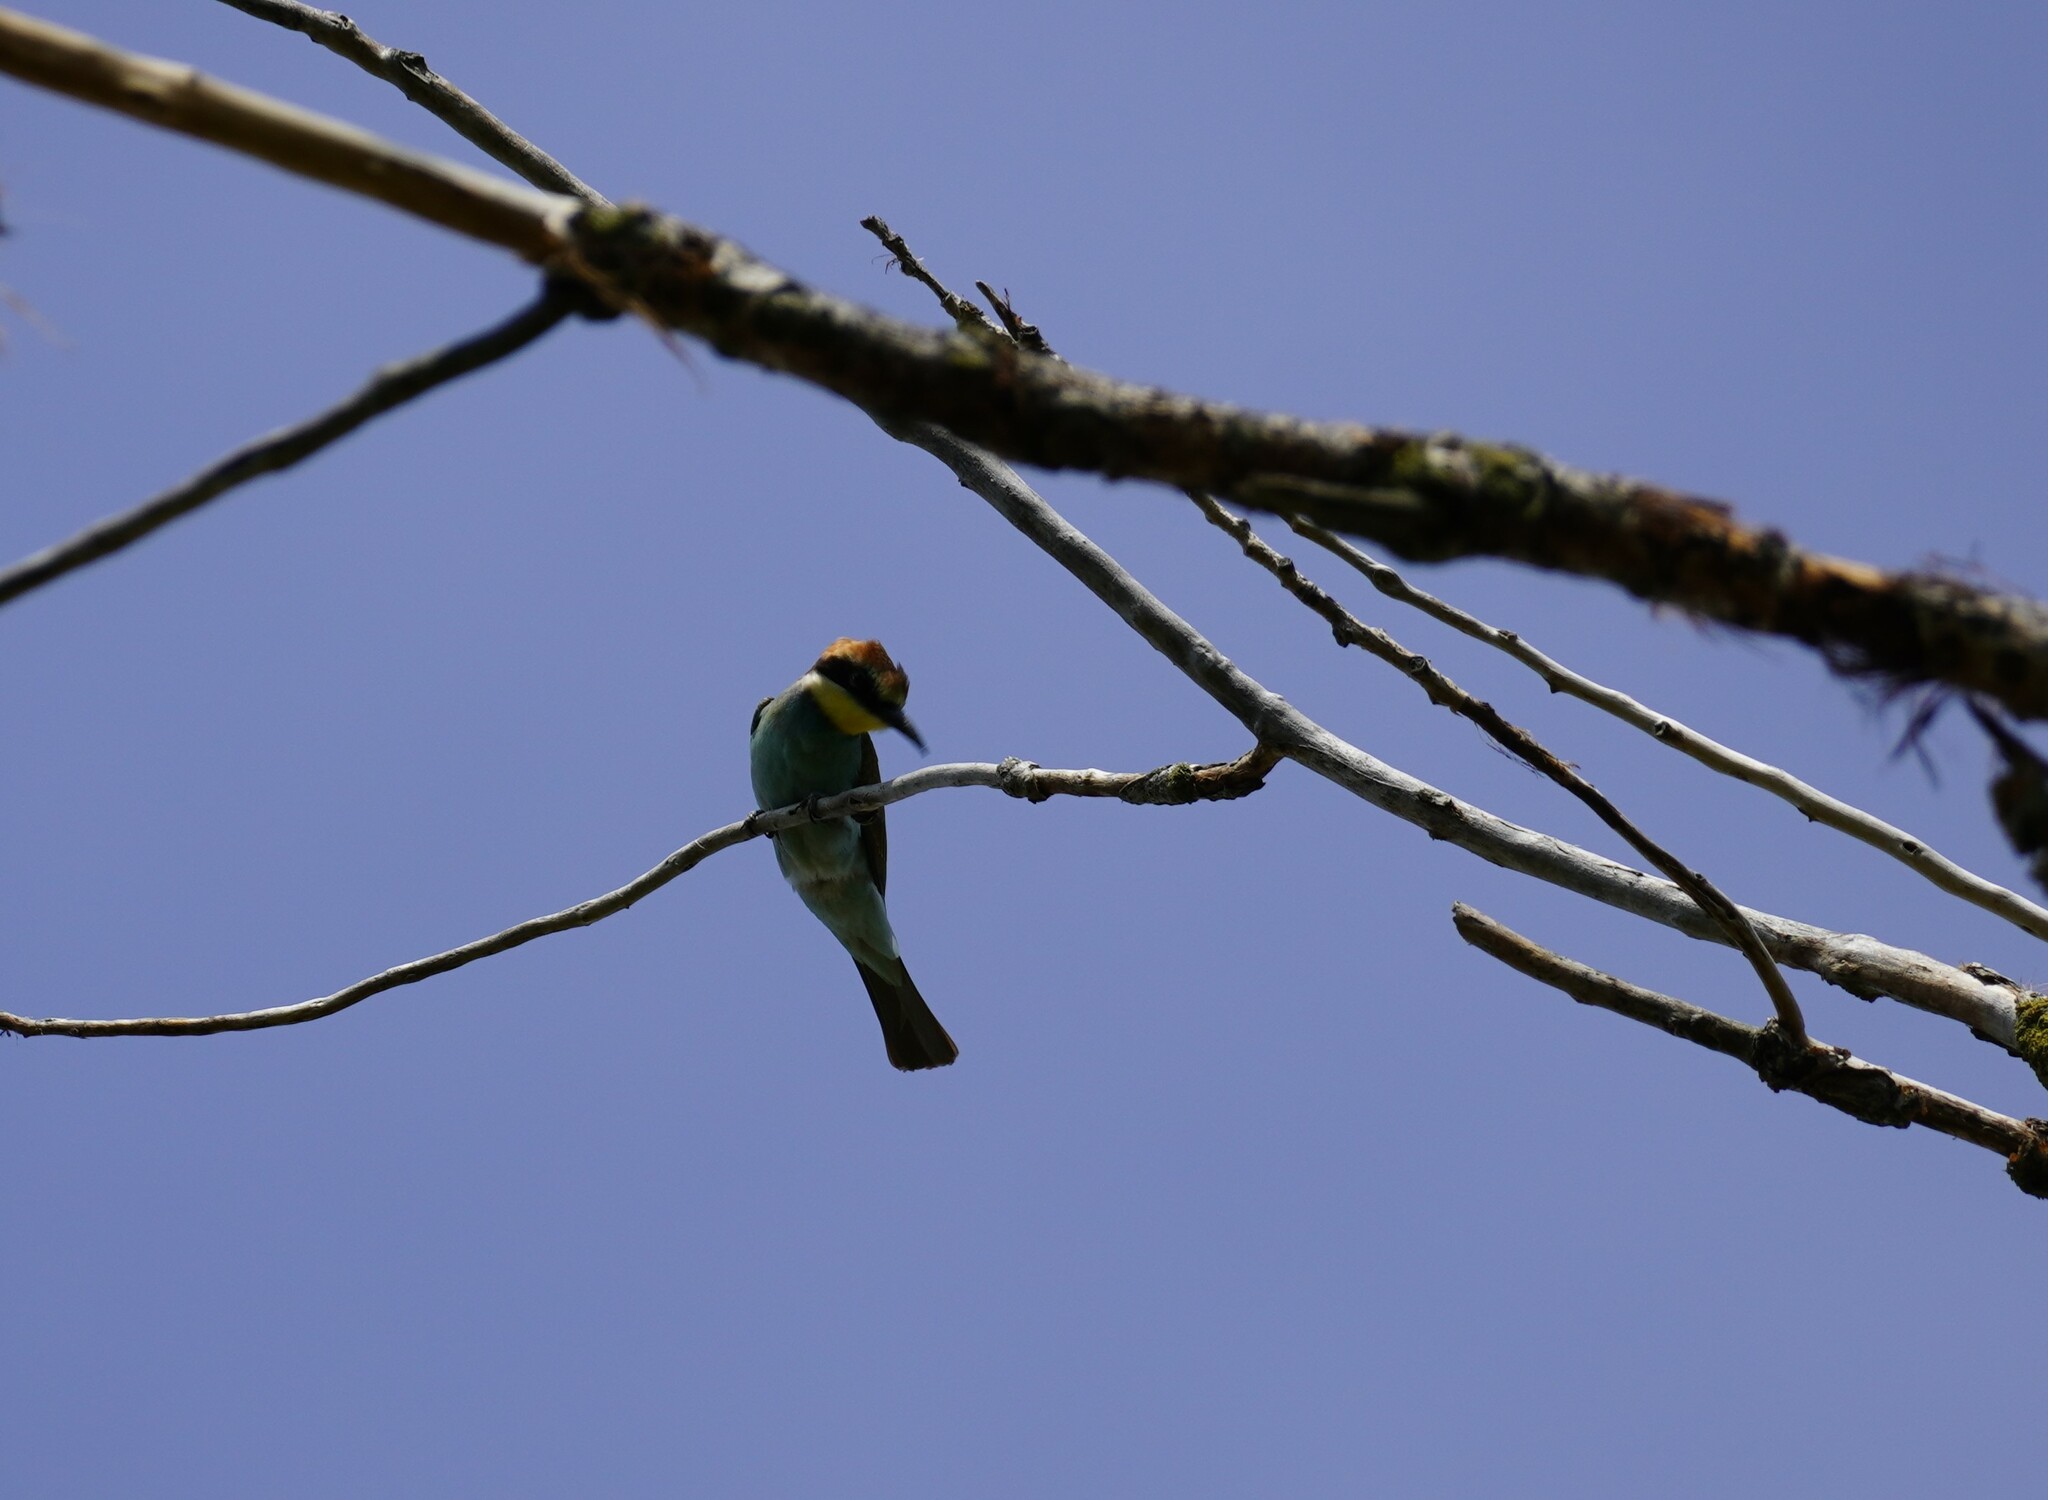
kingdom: Animalia
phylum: Chordata
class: Aves
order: Coraciiformes
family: Meropidae
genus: Merops
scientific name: Merops apiaster
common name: European bee-eater
